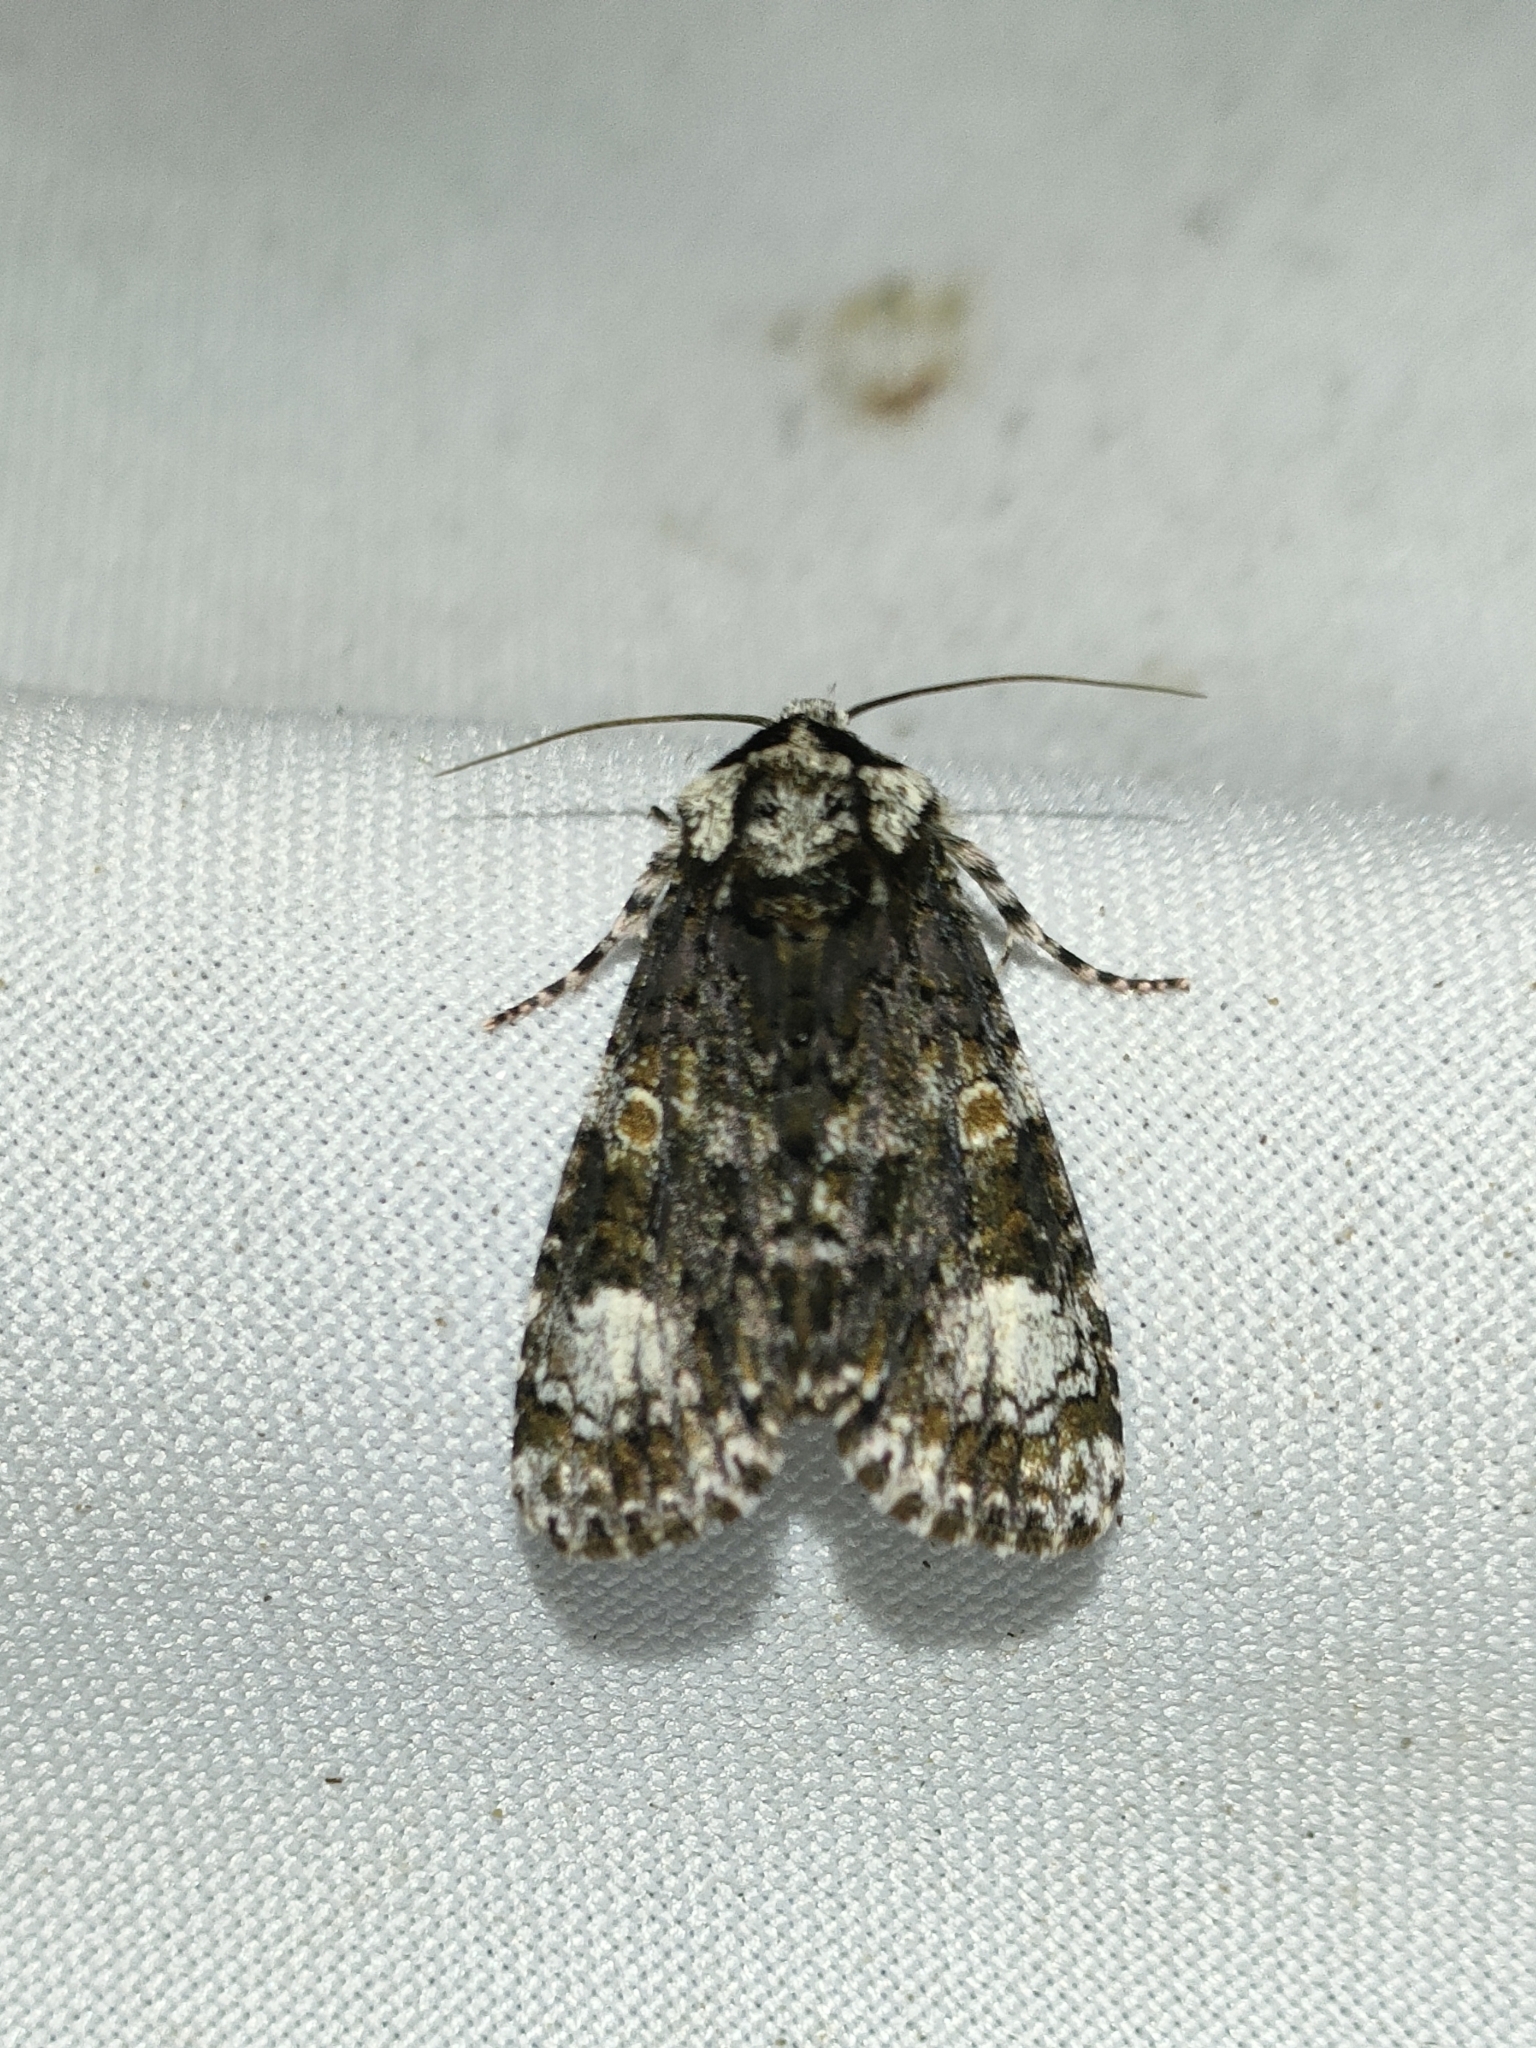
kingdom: Animalia
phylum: Arthropoda
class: Insecta
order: Lepidoptera
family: Noctuidae
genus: Craniophora
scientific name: Craniophora ligustri
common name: Coronet
